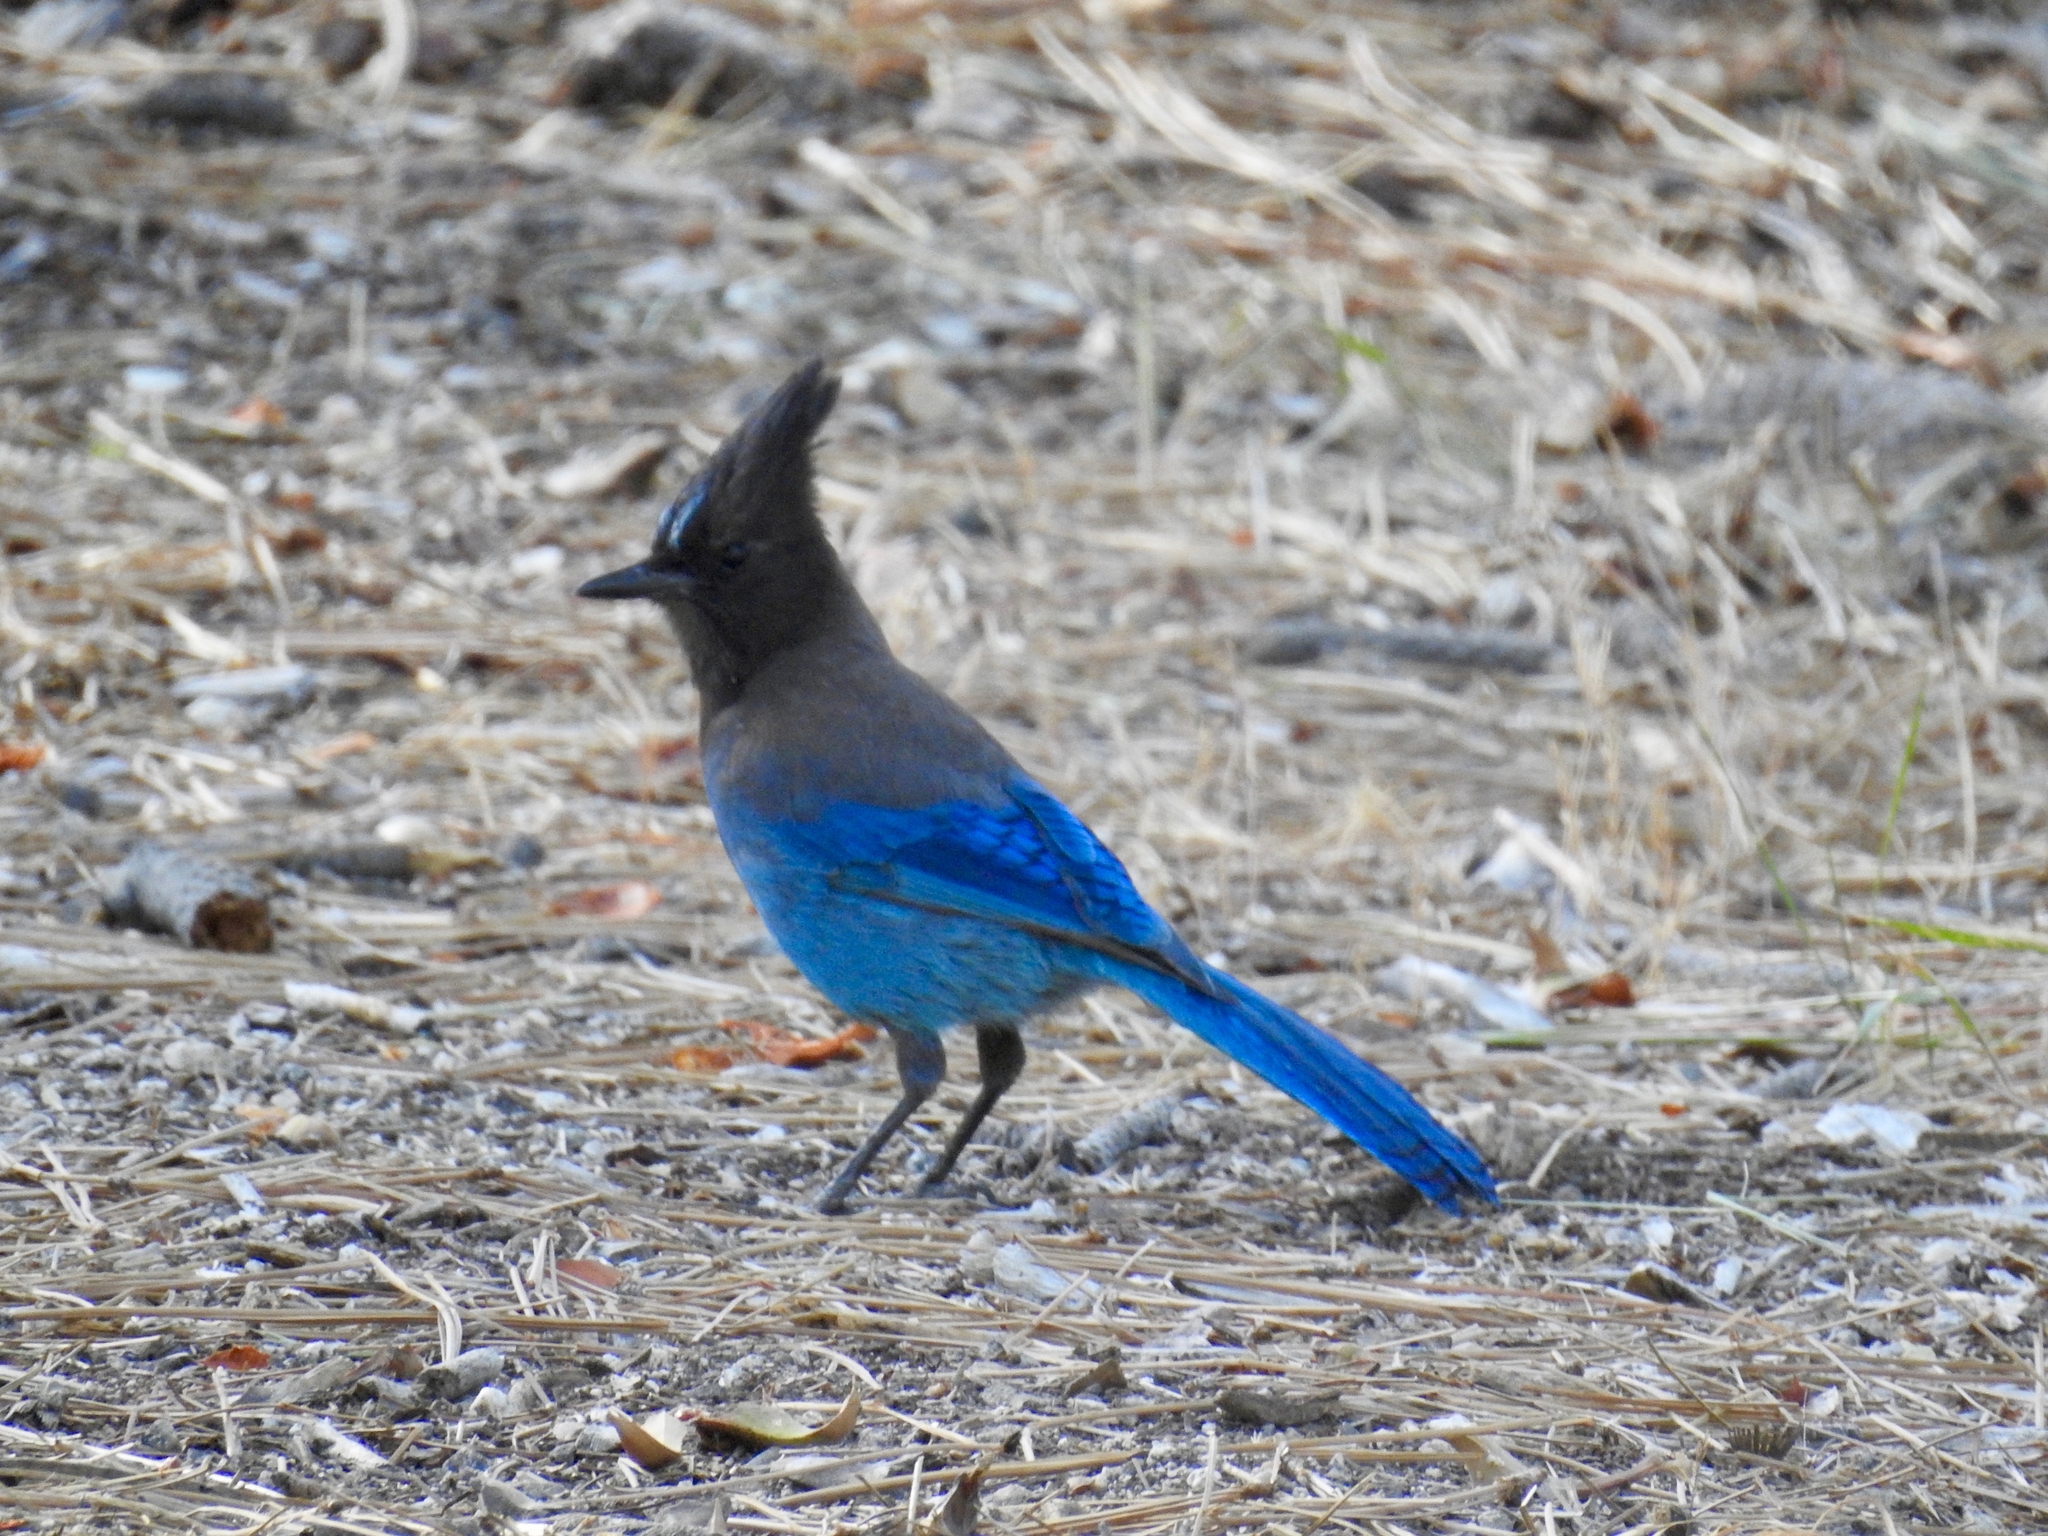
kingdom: Animalia
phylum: Chordata
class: Aves
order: Passeriformes
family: Corvidae
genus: Cyanocitta
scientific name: Cyanocitta stelleri
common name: Steller's jay
